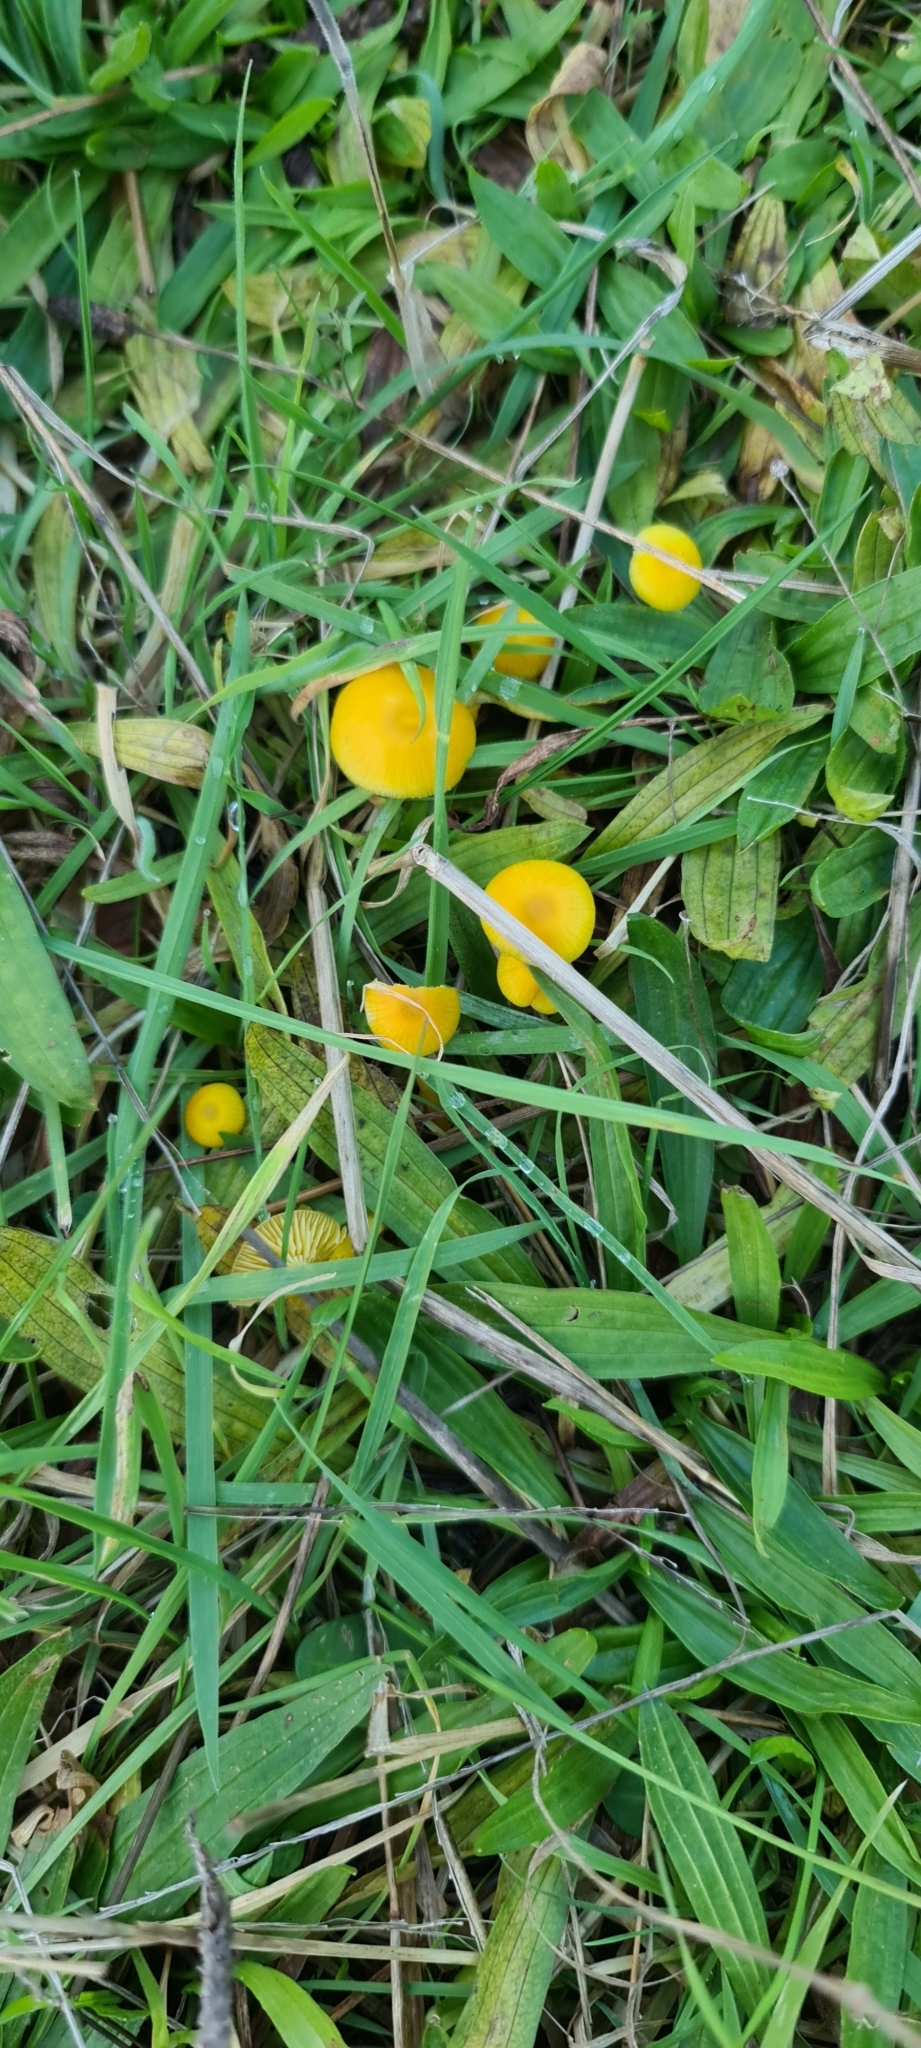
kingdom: Fungi
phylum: Basidiomycota
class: Agaricomycetes
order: Agaricales
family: Hygrophoraceae
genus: Hygrocybe
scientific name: Hygrocybe ceracea
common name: Butter waxcap
